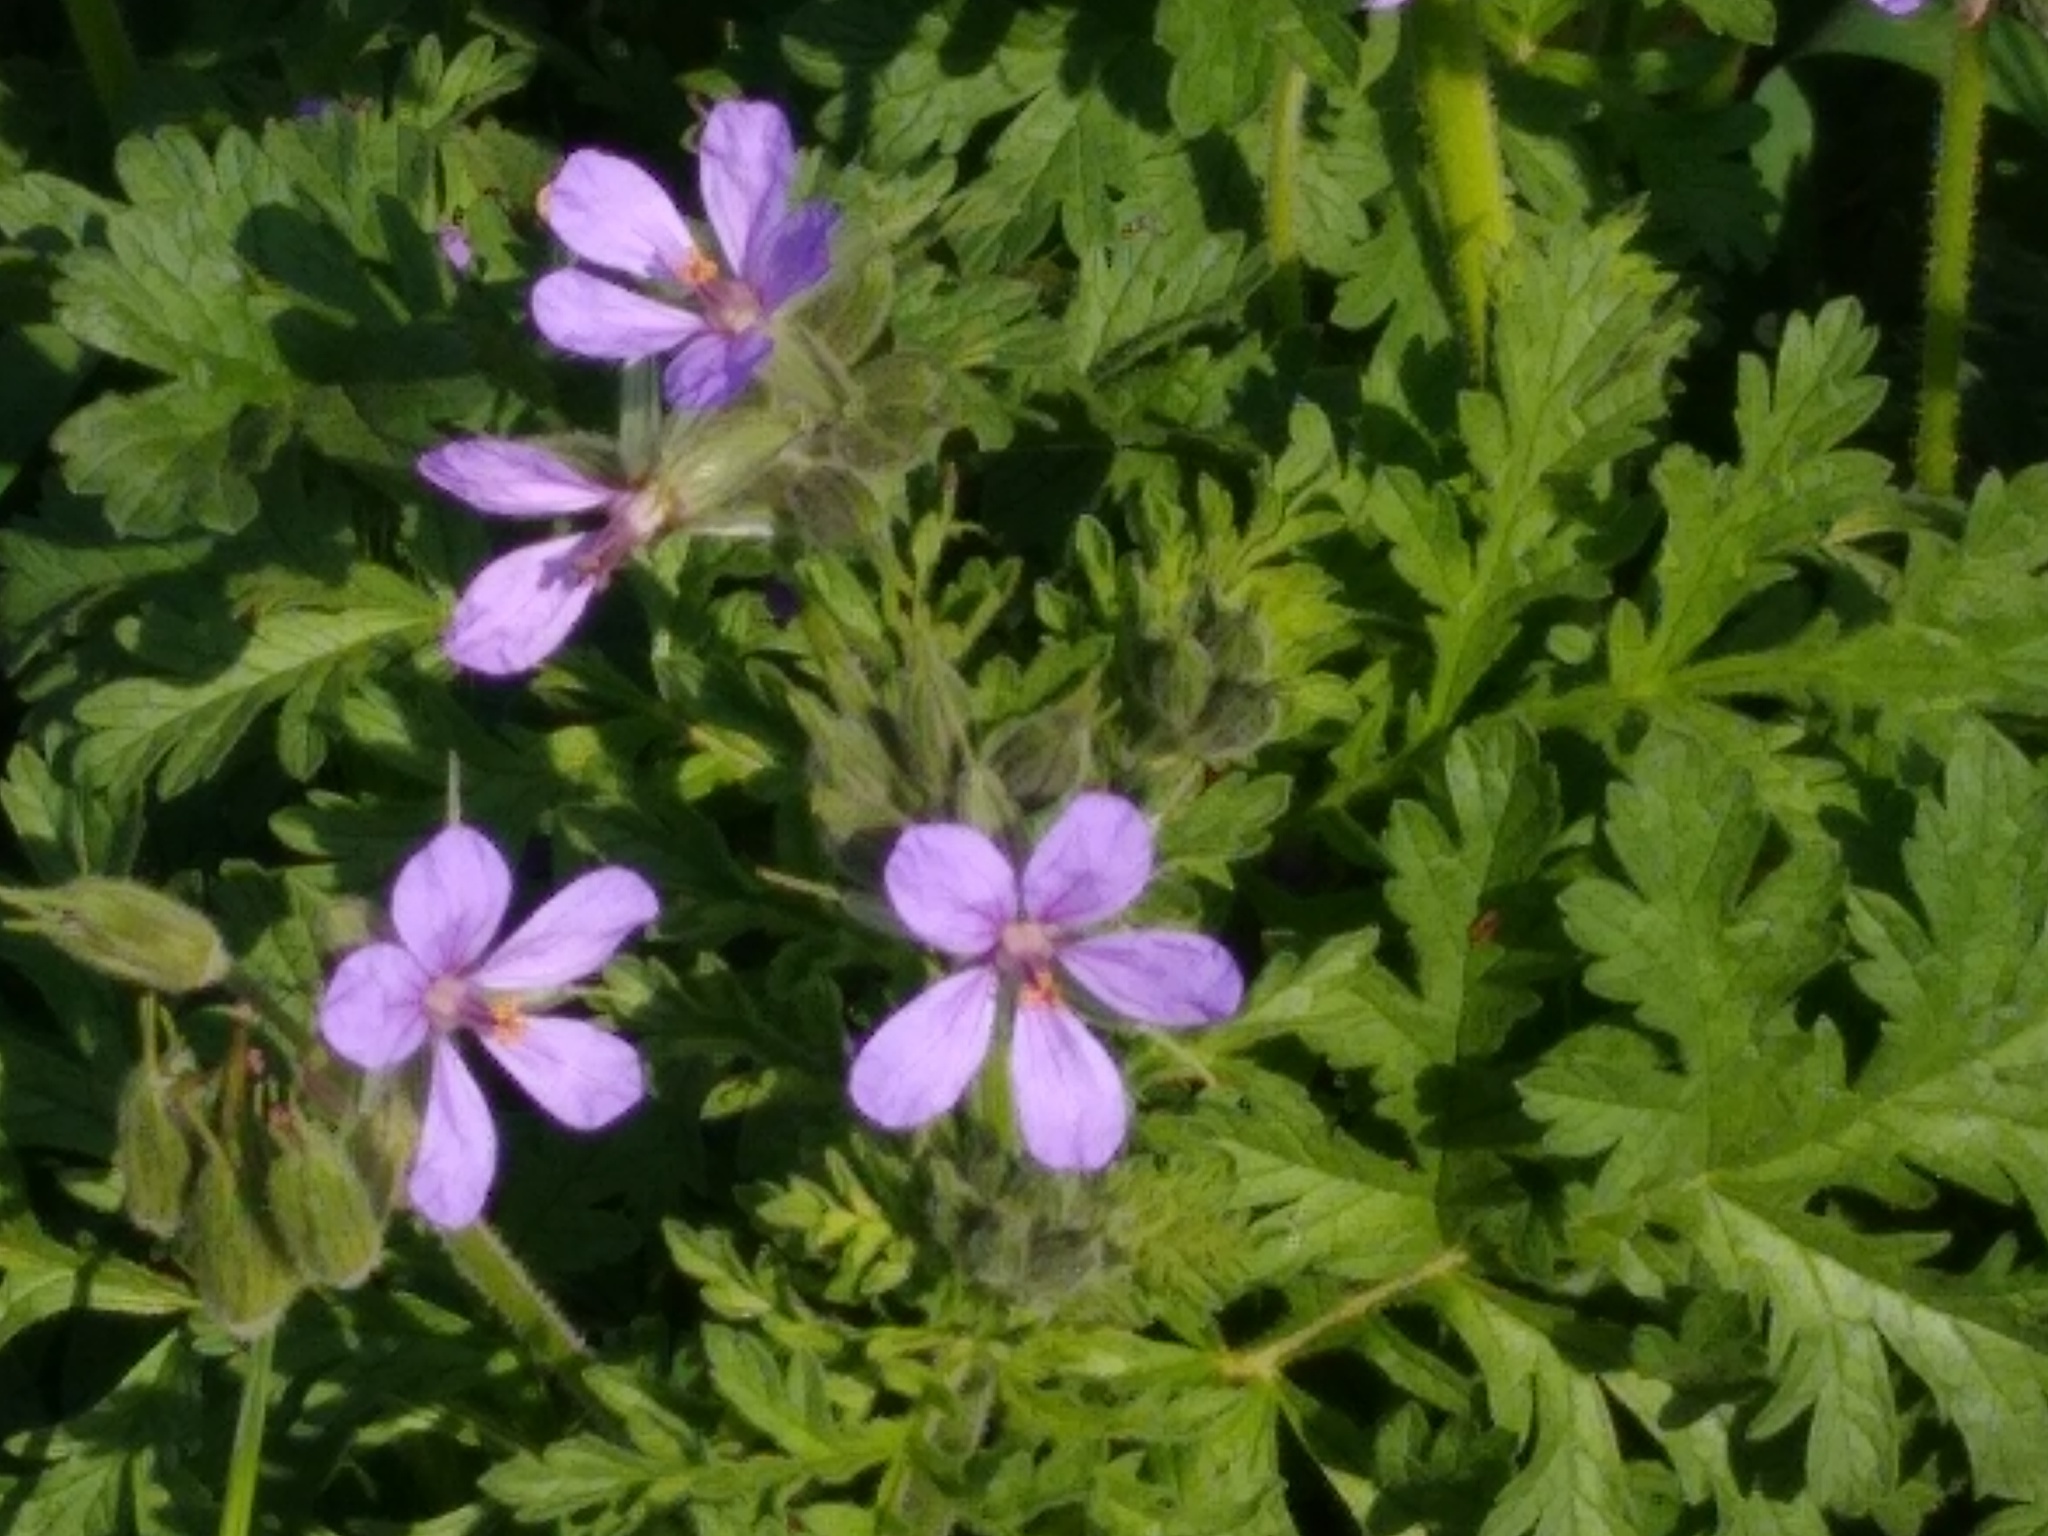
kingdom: Plantae
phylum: Tracheophyta
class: Magnoliopsida
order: Geraniales
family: Geraniaceae
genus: Erodium
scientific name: Erodium ciconium
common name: Common stork's bill
